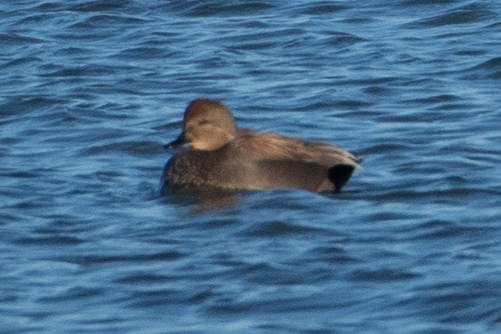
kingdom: Animalia
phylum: Chordata
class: Aves
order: Anseriformes
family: Anatidae
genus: Mareca
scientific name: Mareca strepera
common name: Gadwall
